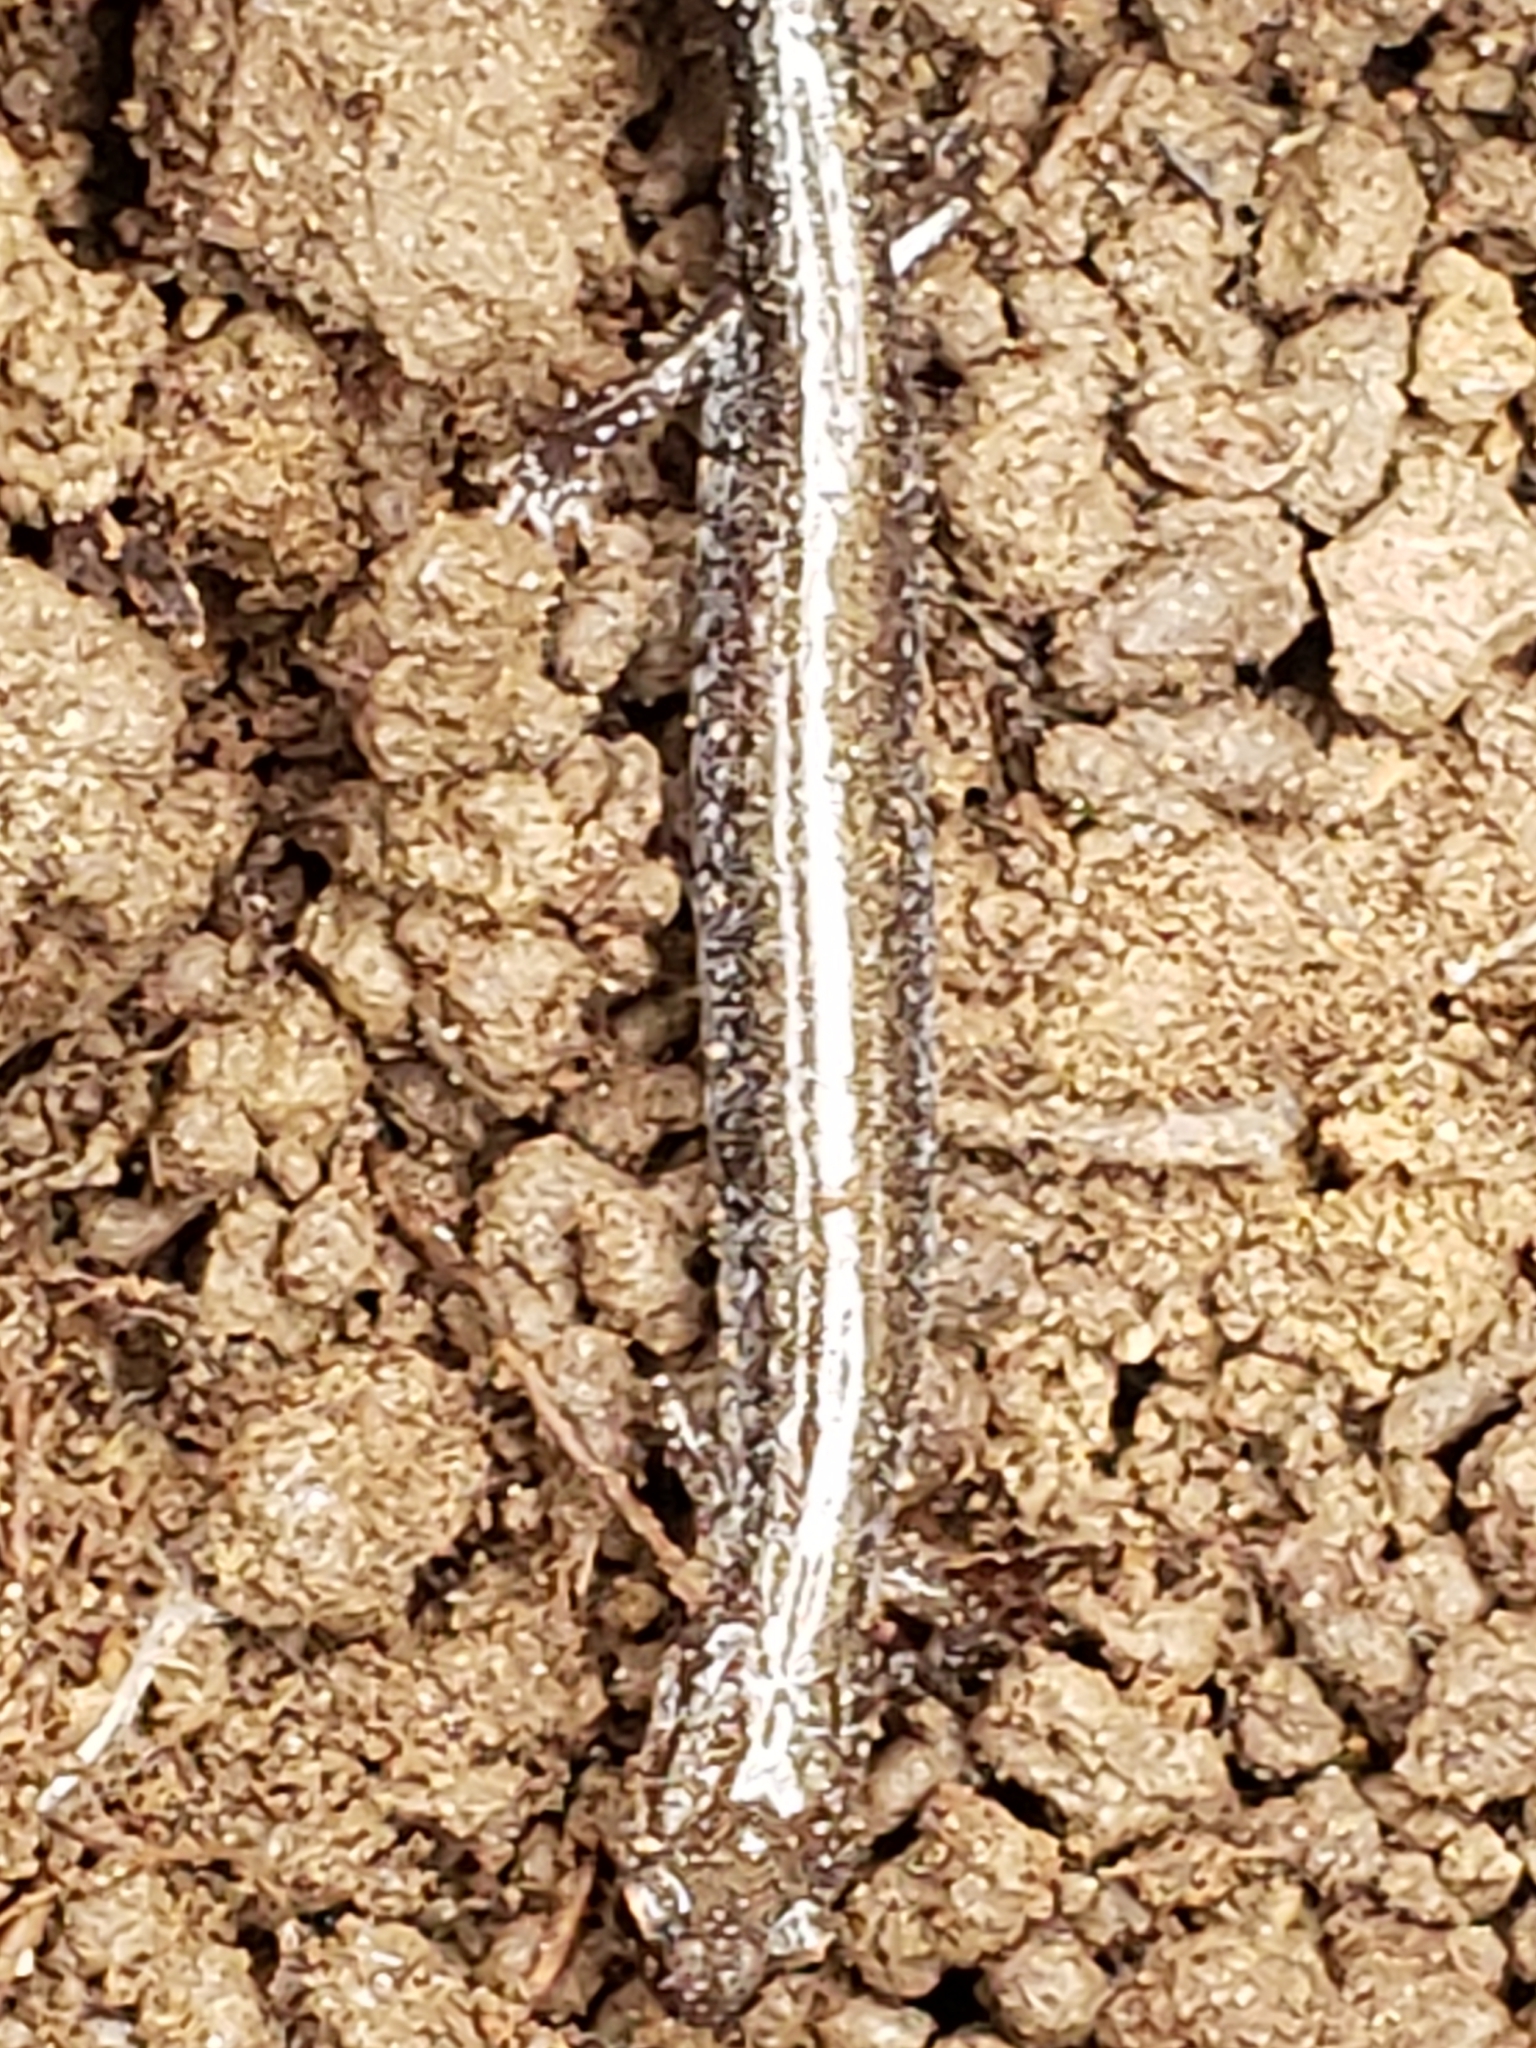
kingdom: Animalia
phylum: Chordata
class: Amphibia
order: Caudata
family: Plethodontidae
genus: Plethodon
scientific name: Plethodon cinereus
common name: Redback salamander
